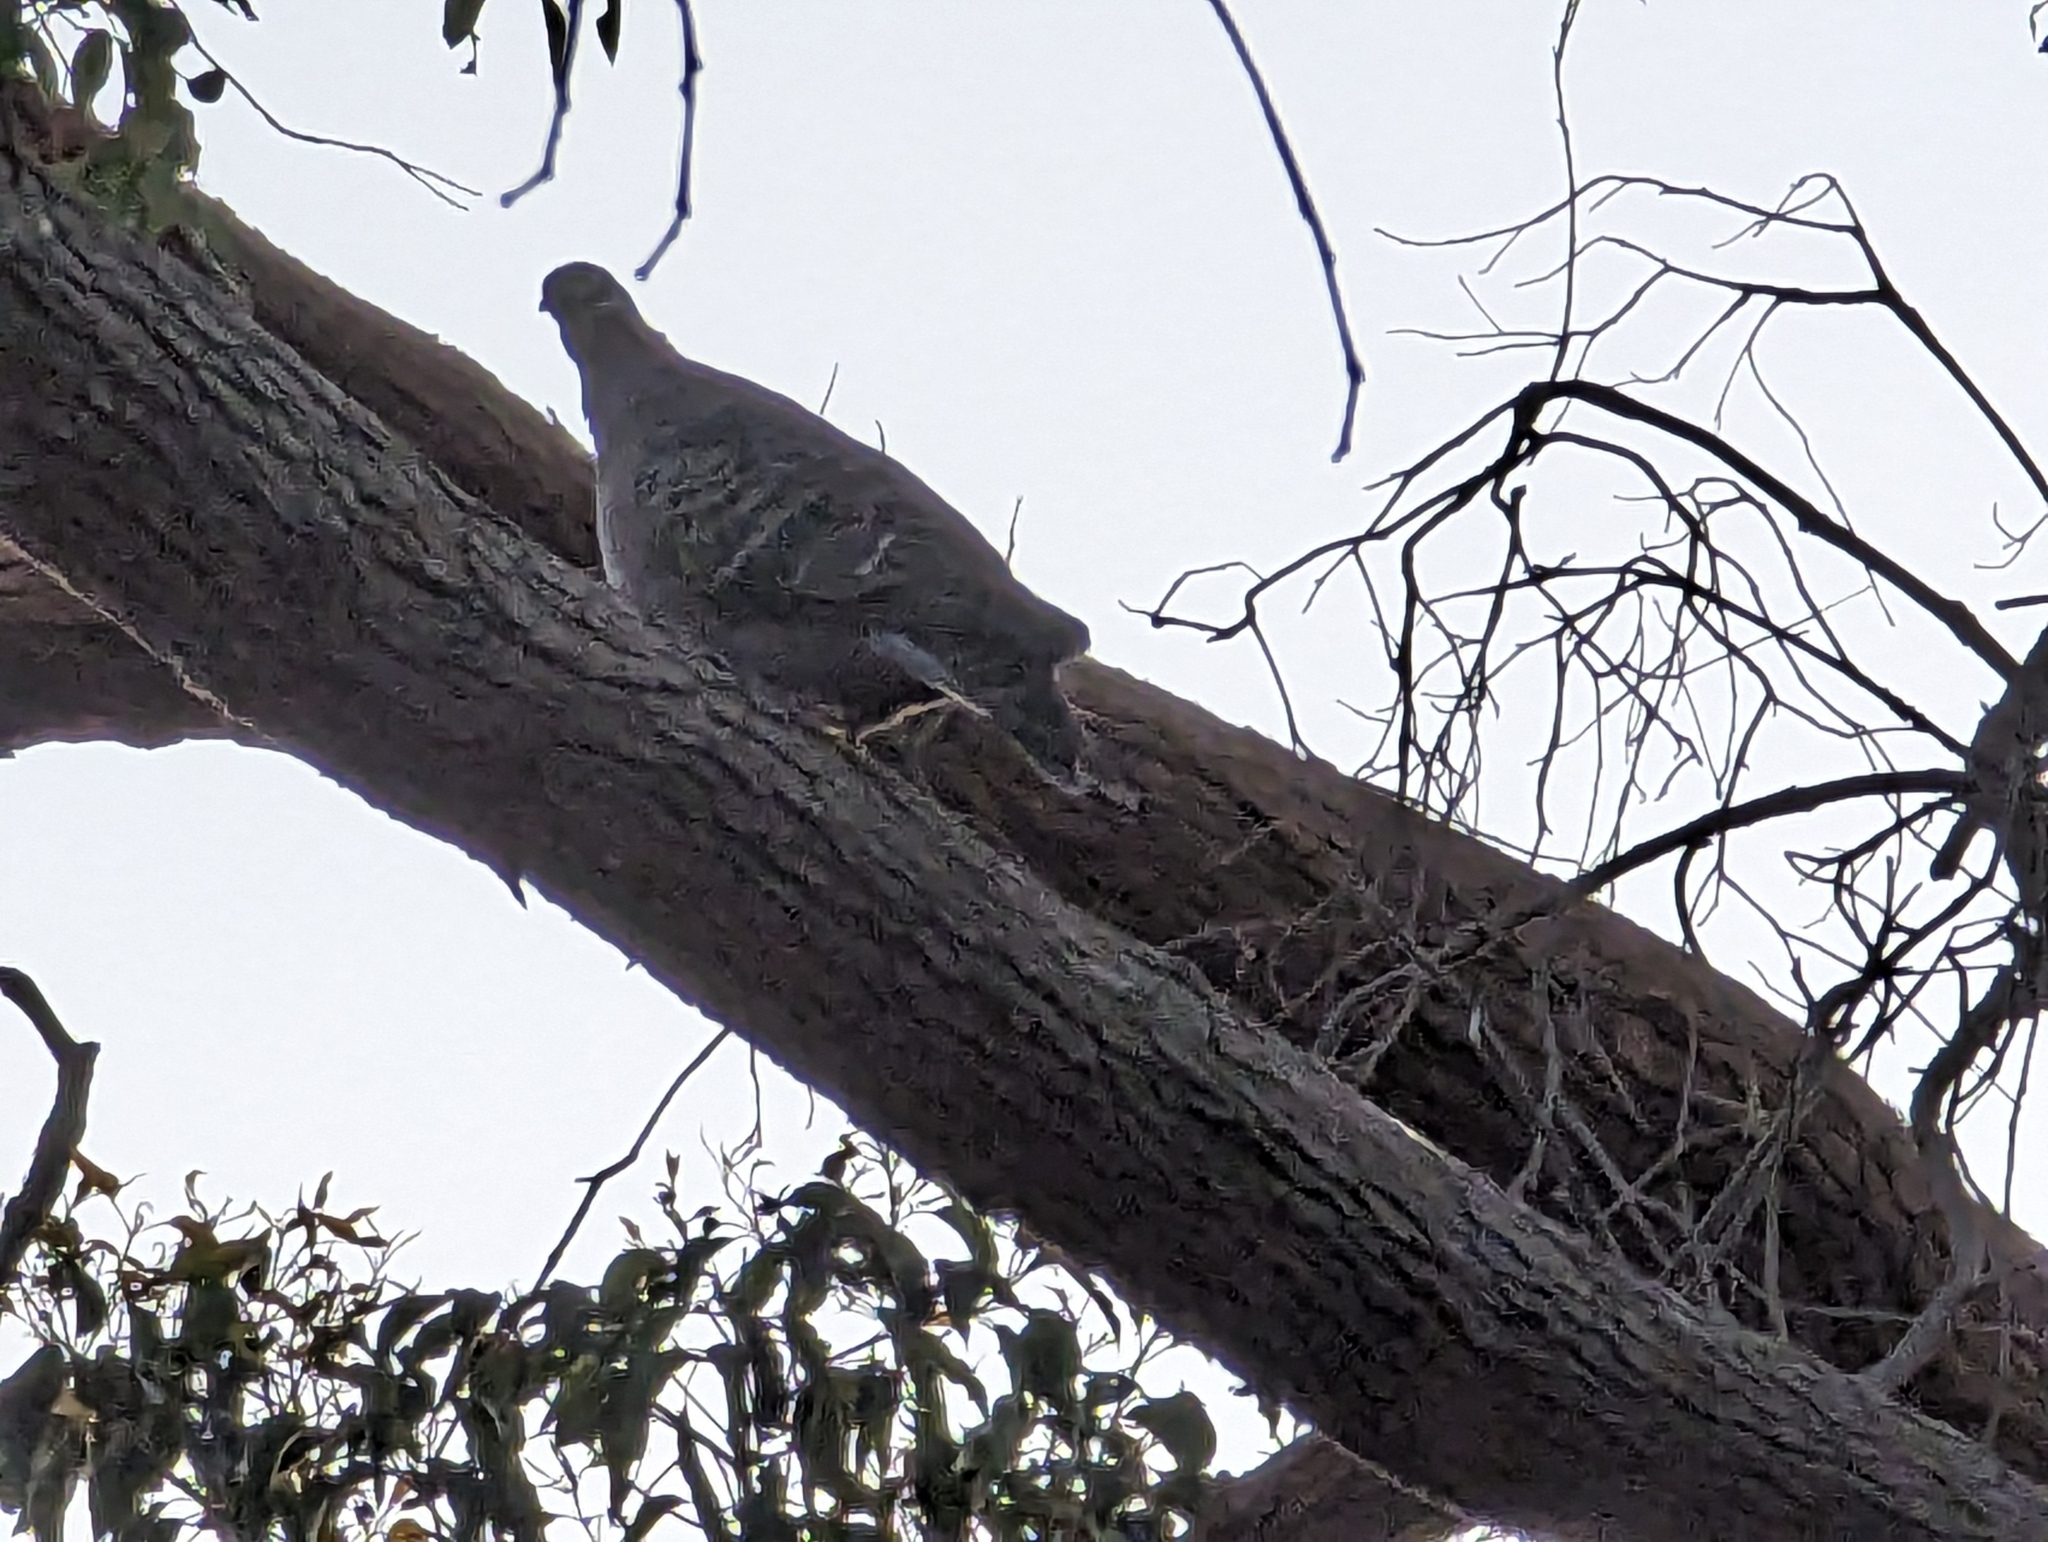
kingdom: Animalia
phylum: Chordata
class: Aves
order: Columbiformes
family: Columbidae
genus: Phaps
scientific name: Phaps chalcoptera
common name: Common bronzewing
